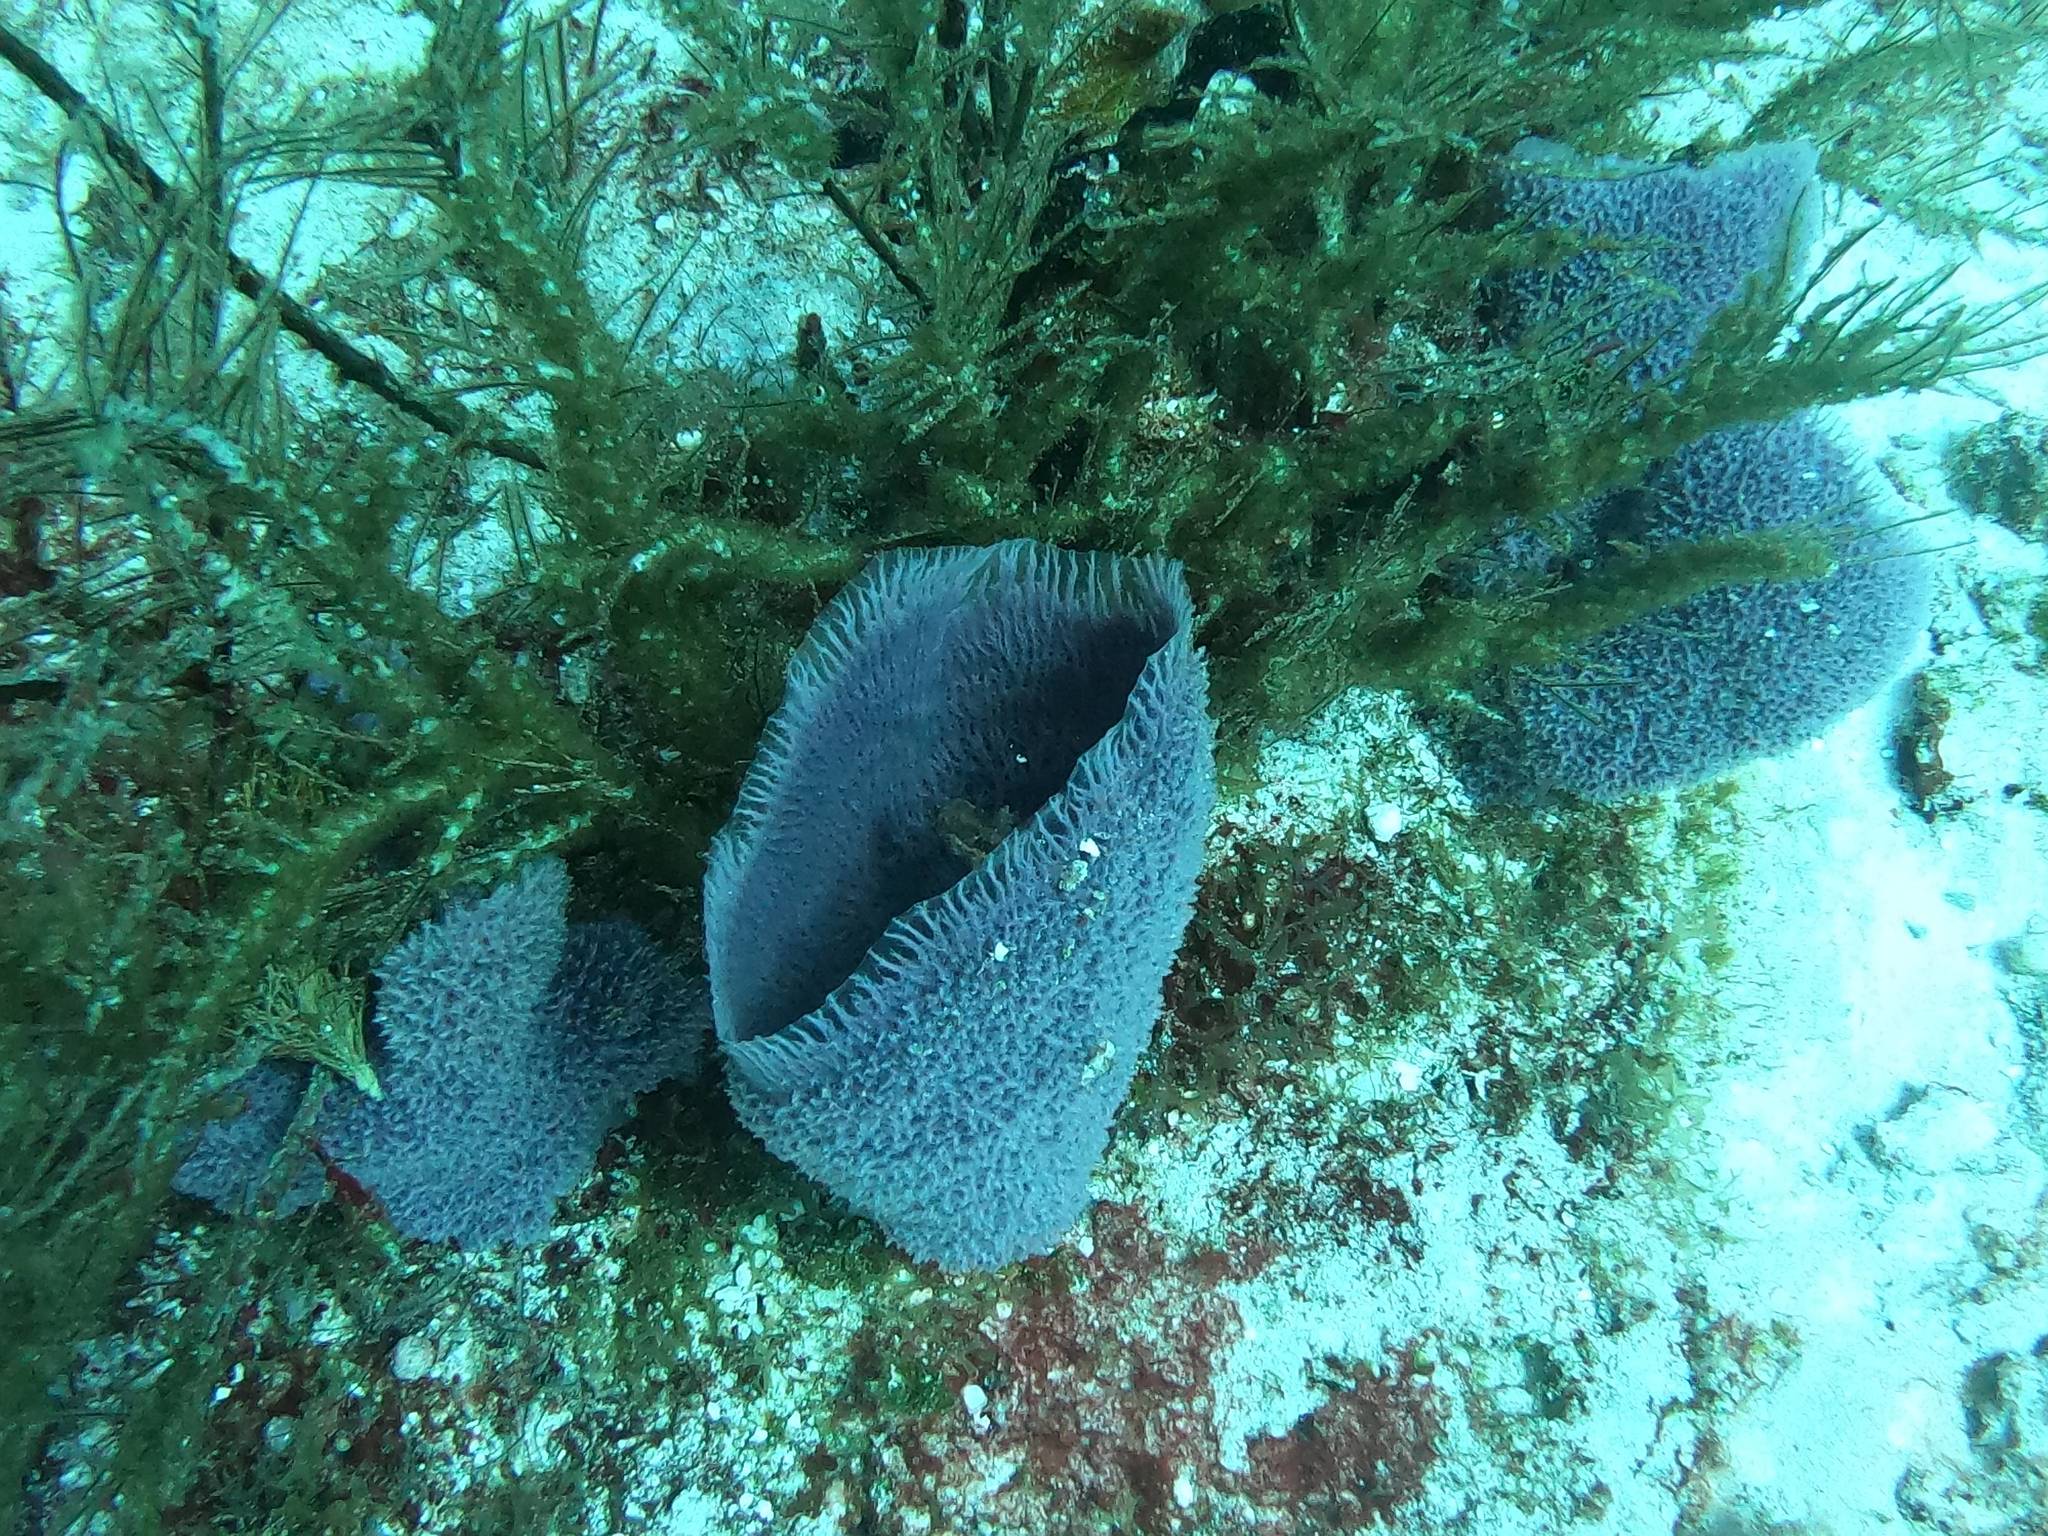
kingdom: Animalia
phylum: Porifera
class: Demospongiae
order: Haplosclerida
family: Niphatidae
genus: Niphates
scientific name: Niphates digitalis
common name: Pink vase sponge
